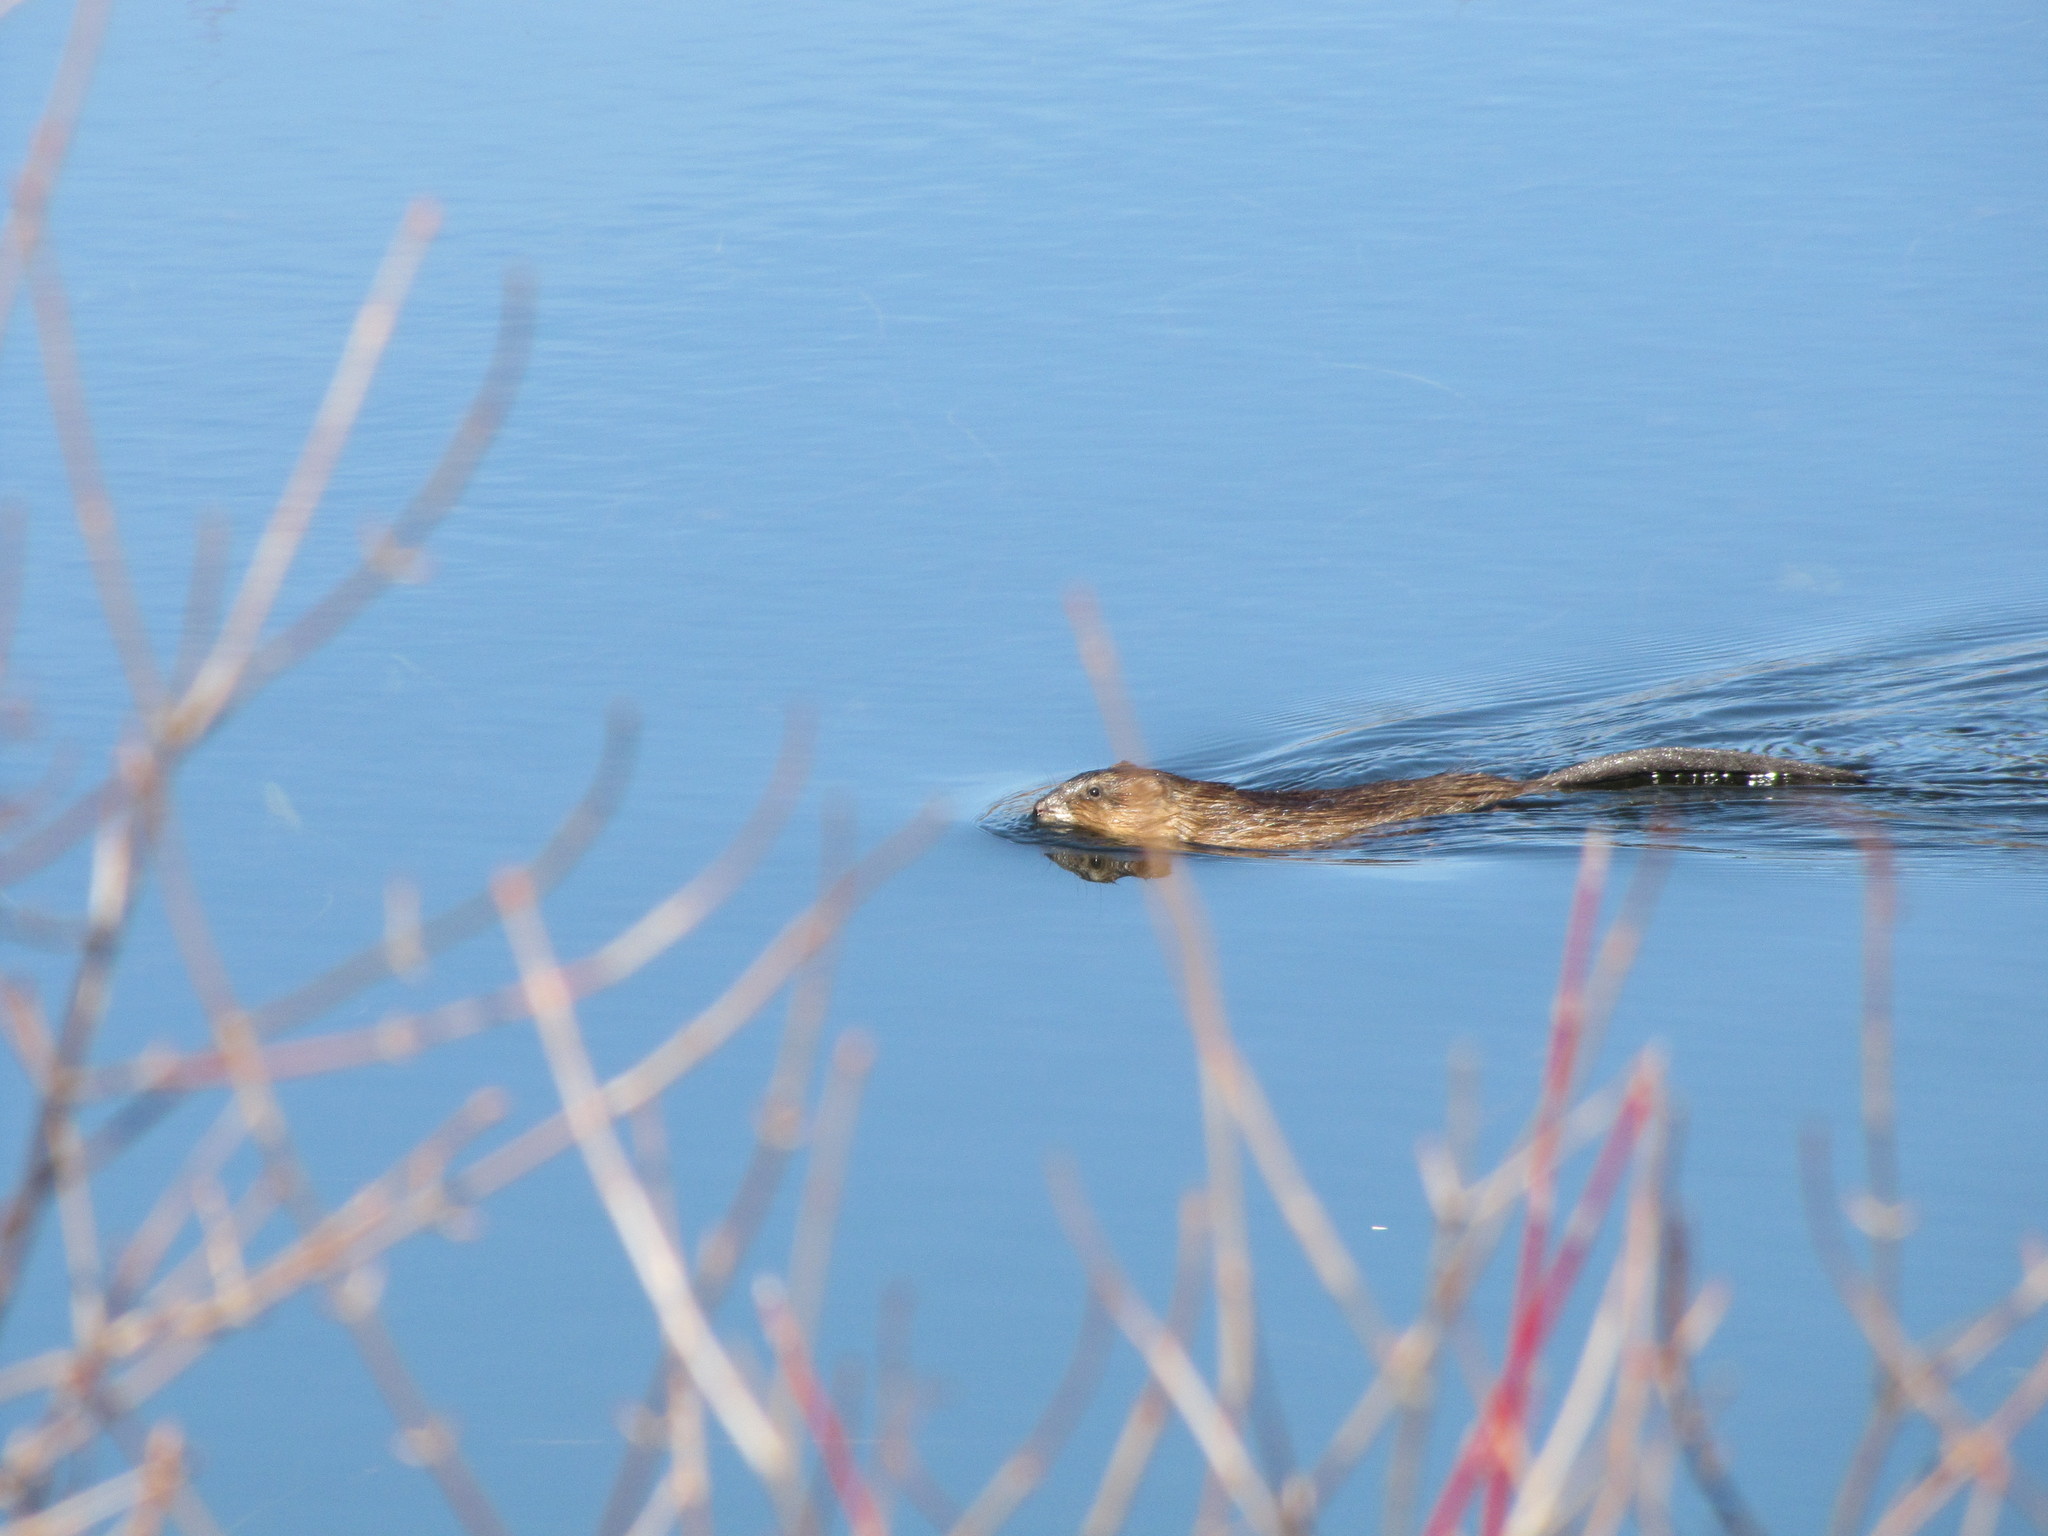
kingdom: Animalia
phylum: Chordata
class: Mammalia
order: Rodentia
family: Cricetidae
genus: Ondatra
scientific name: Ondatra zibethicus
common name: Muskrat
